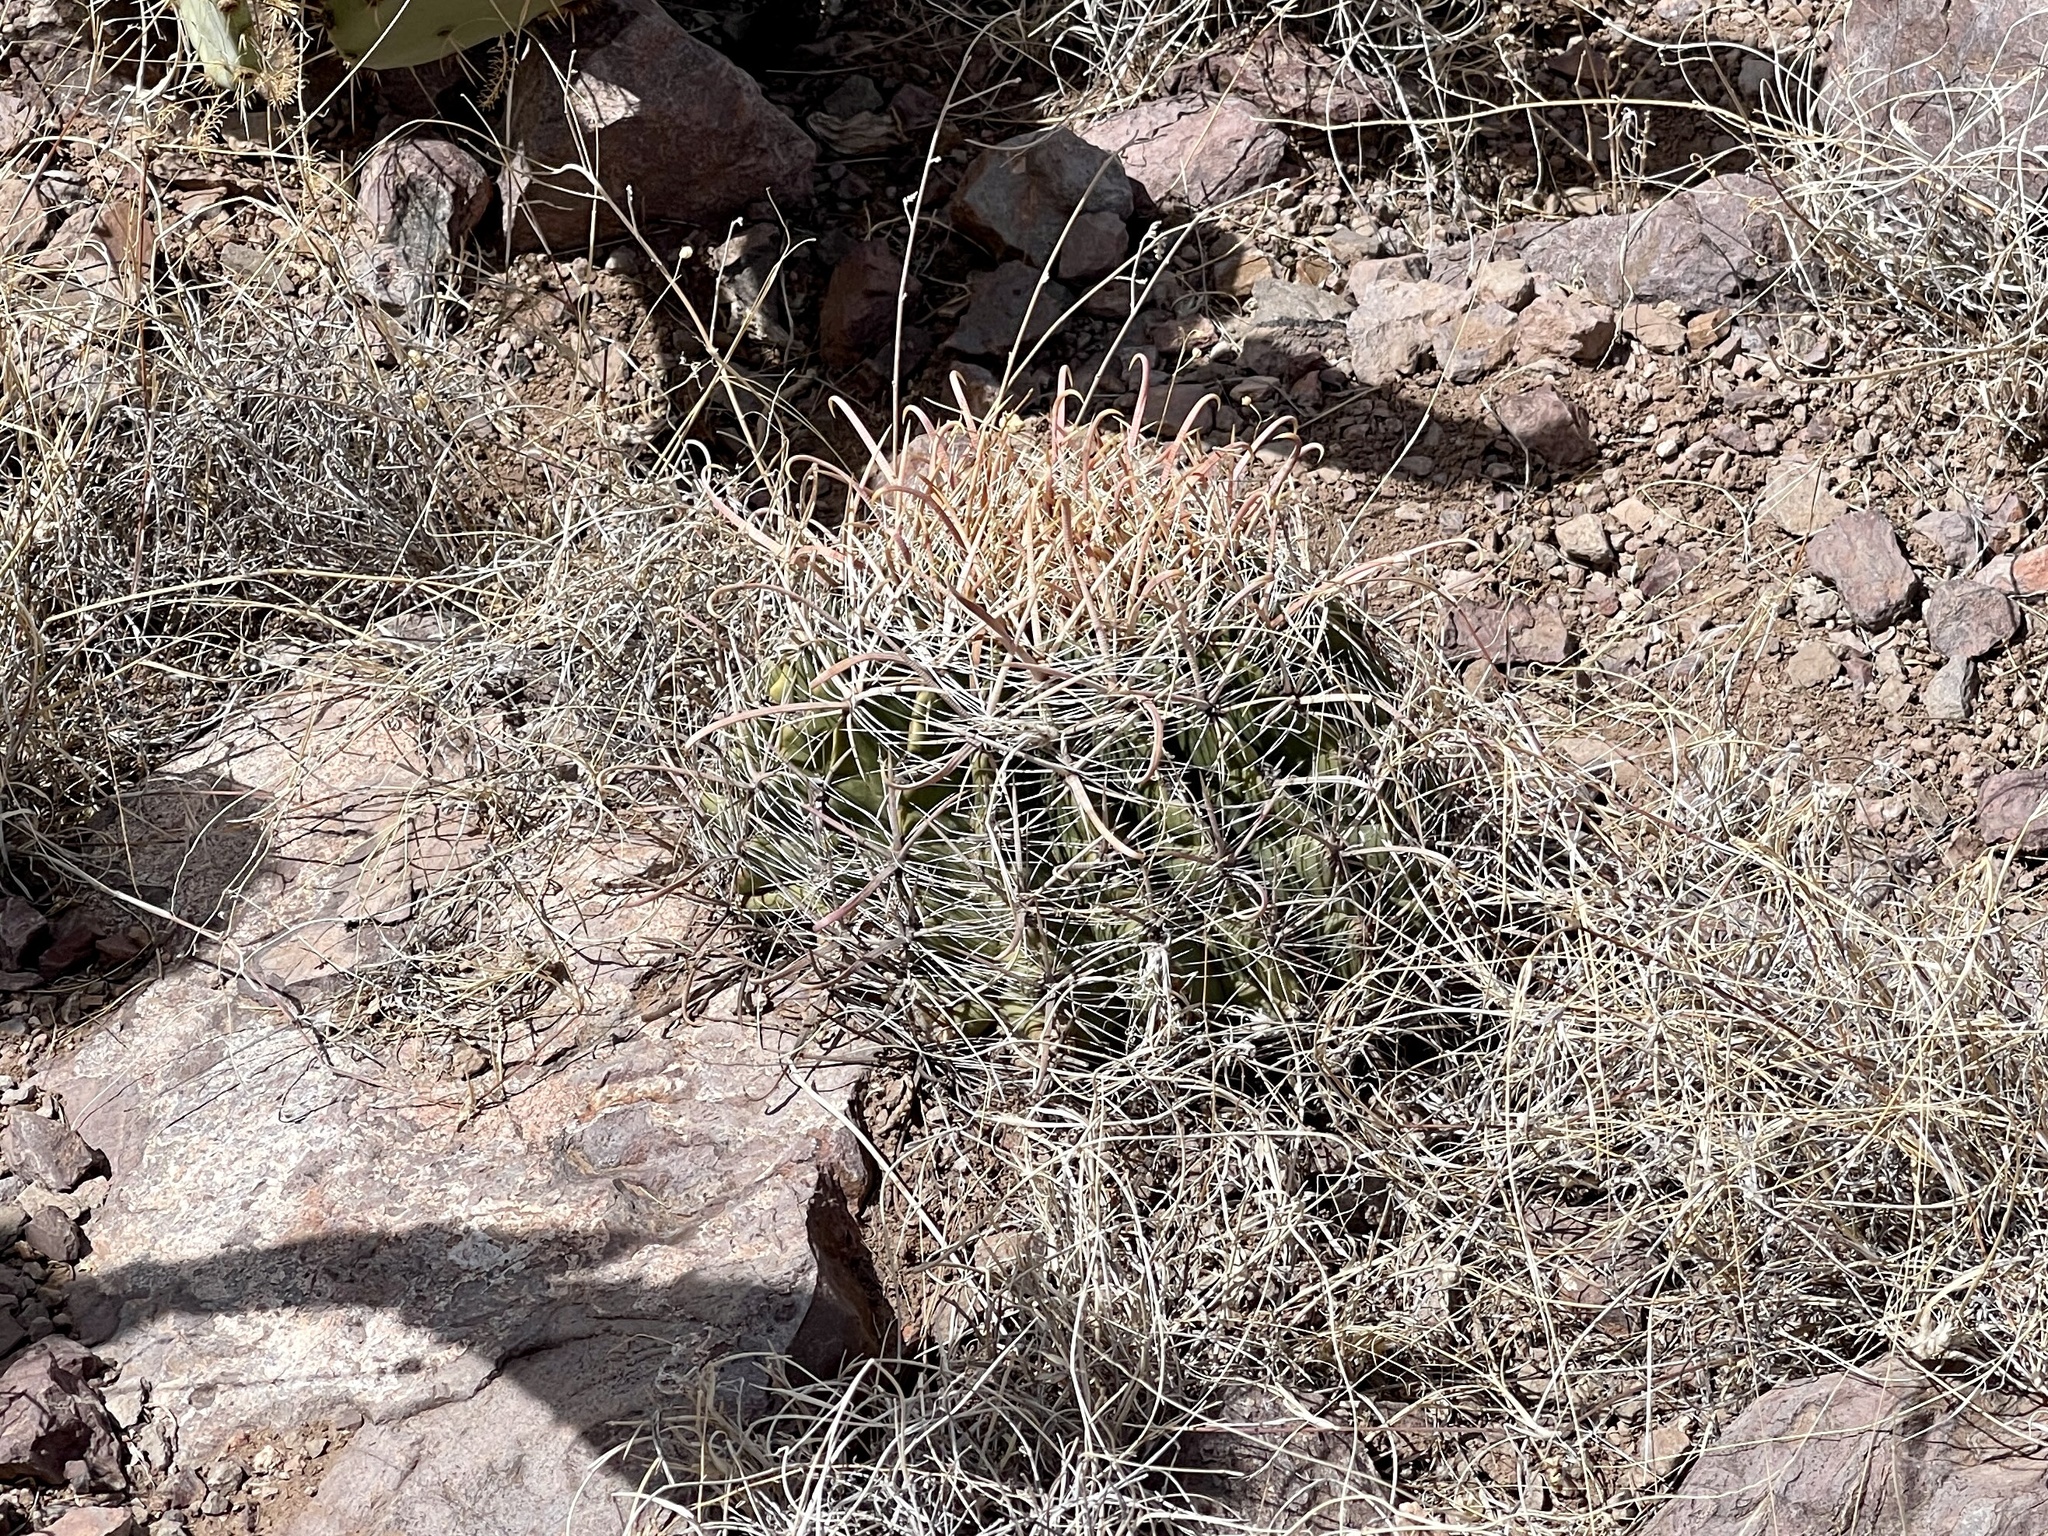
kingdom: Plantae
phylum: Tracheophyta
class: Magnoliopsida
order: Caryophyllales
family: Cactaceae
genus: Ferocactus
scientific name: Ferocactus wislizeni
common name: Candy barrel cactus
